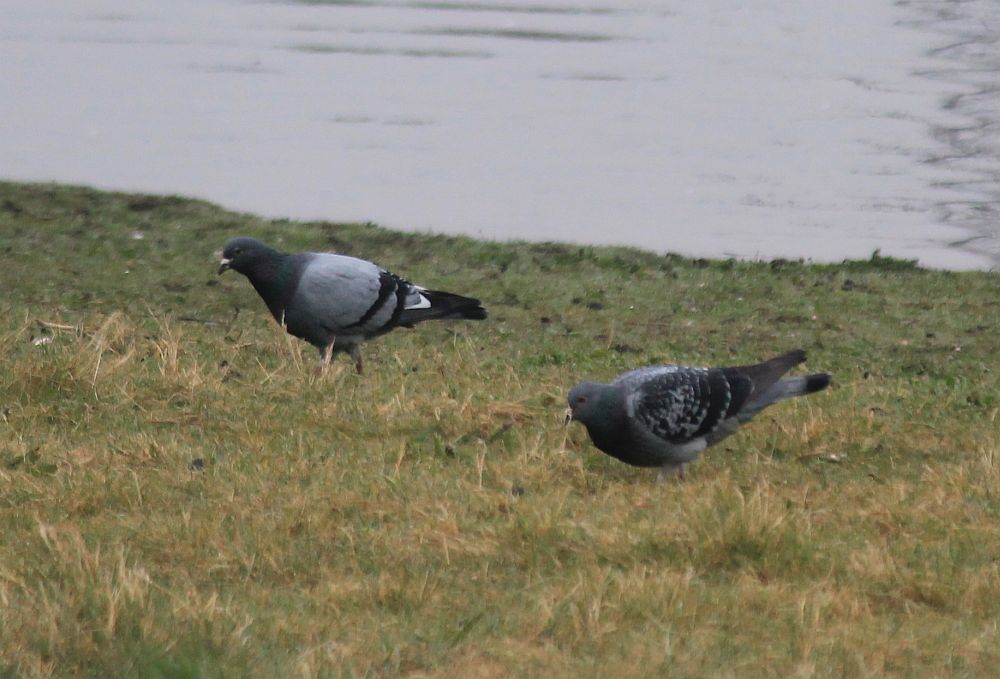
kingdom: Animalia
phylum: Chordata
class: Aves
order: Columbiformes
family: Columbidae
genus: Columba
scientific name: Columba livia
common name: Rock pigeon
